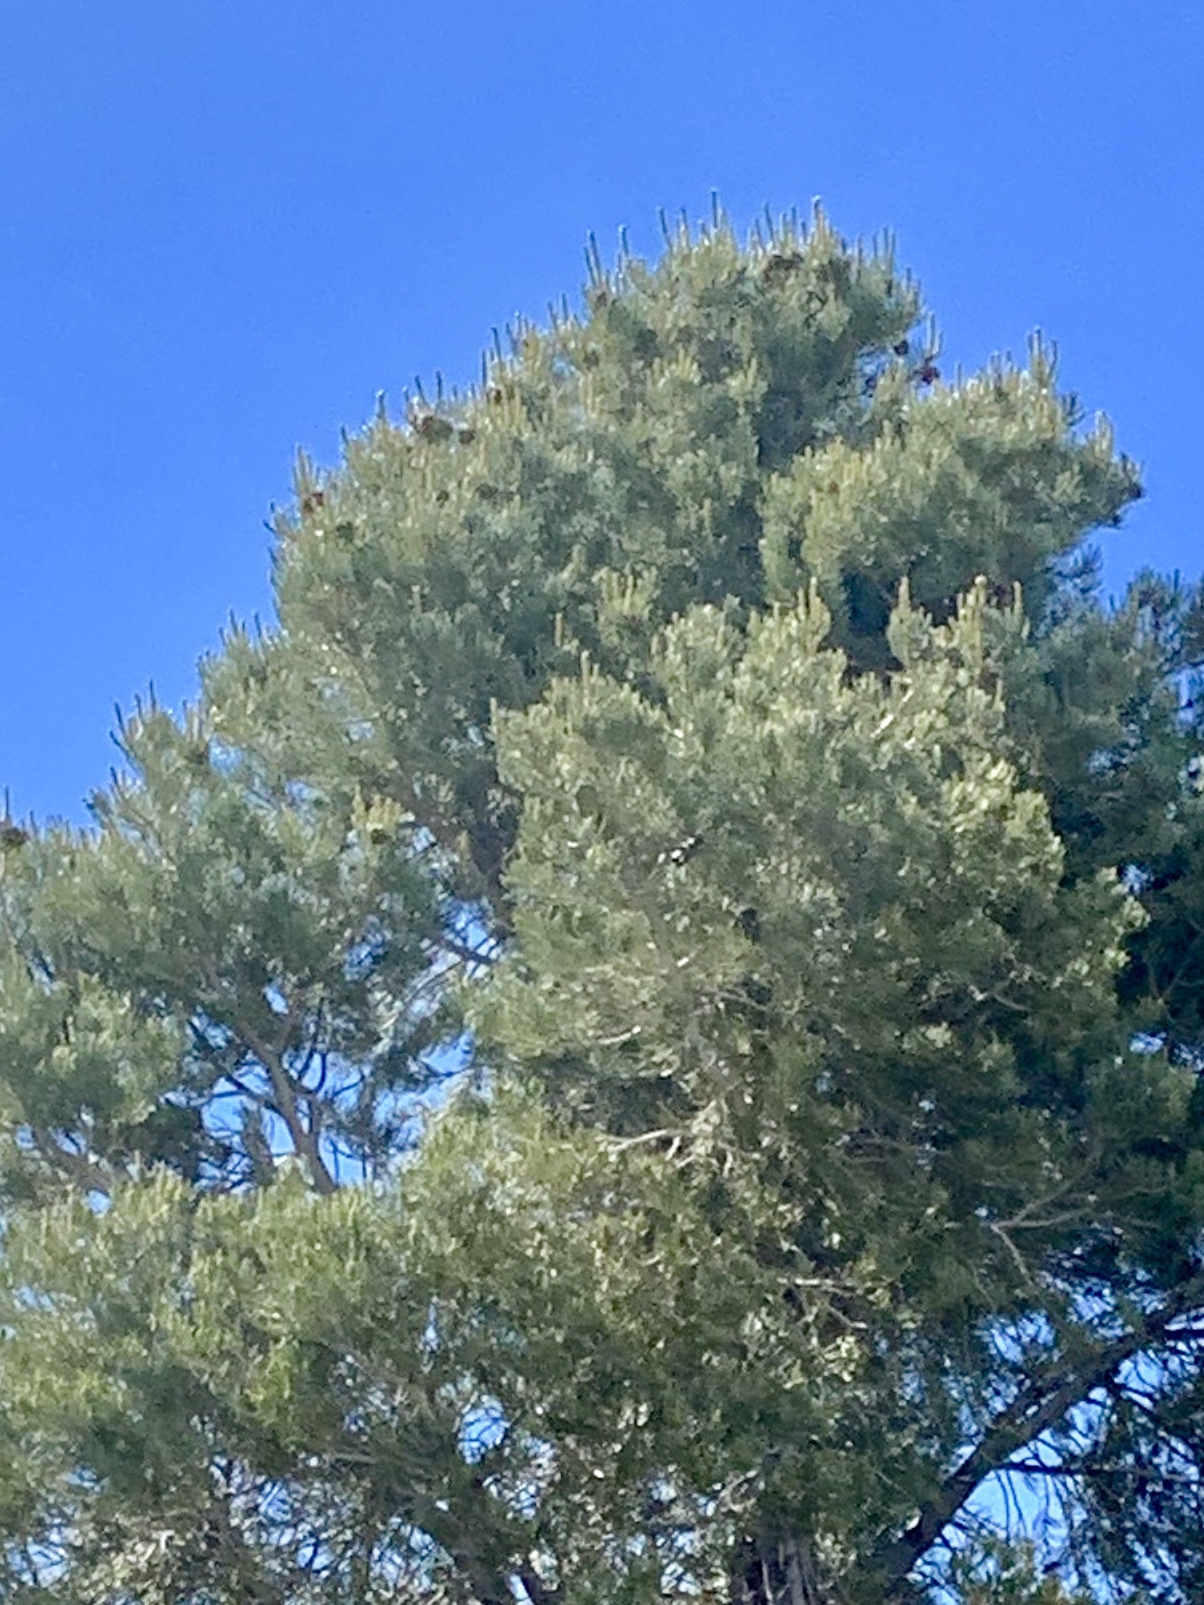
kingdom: Plantae
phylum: Tracheophyta
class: Pinopsida
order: Pinales
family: Pinaceae
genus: Pinus
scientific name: Pinus monophylla
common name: One-leaved nut pine
